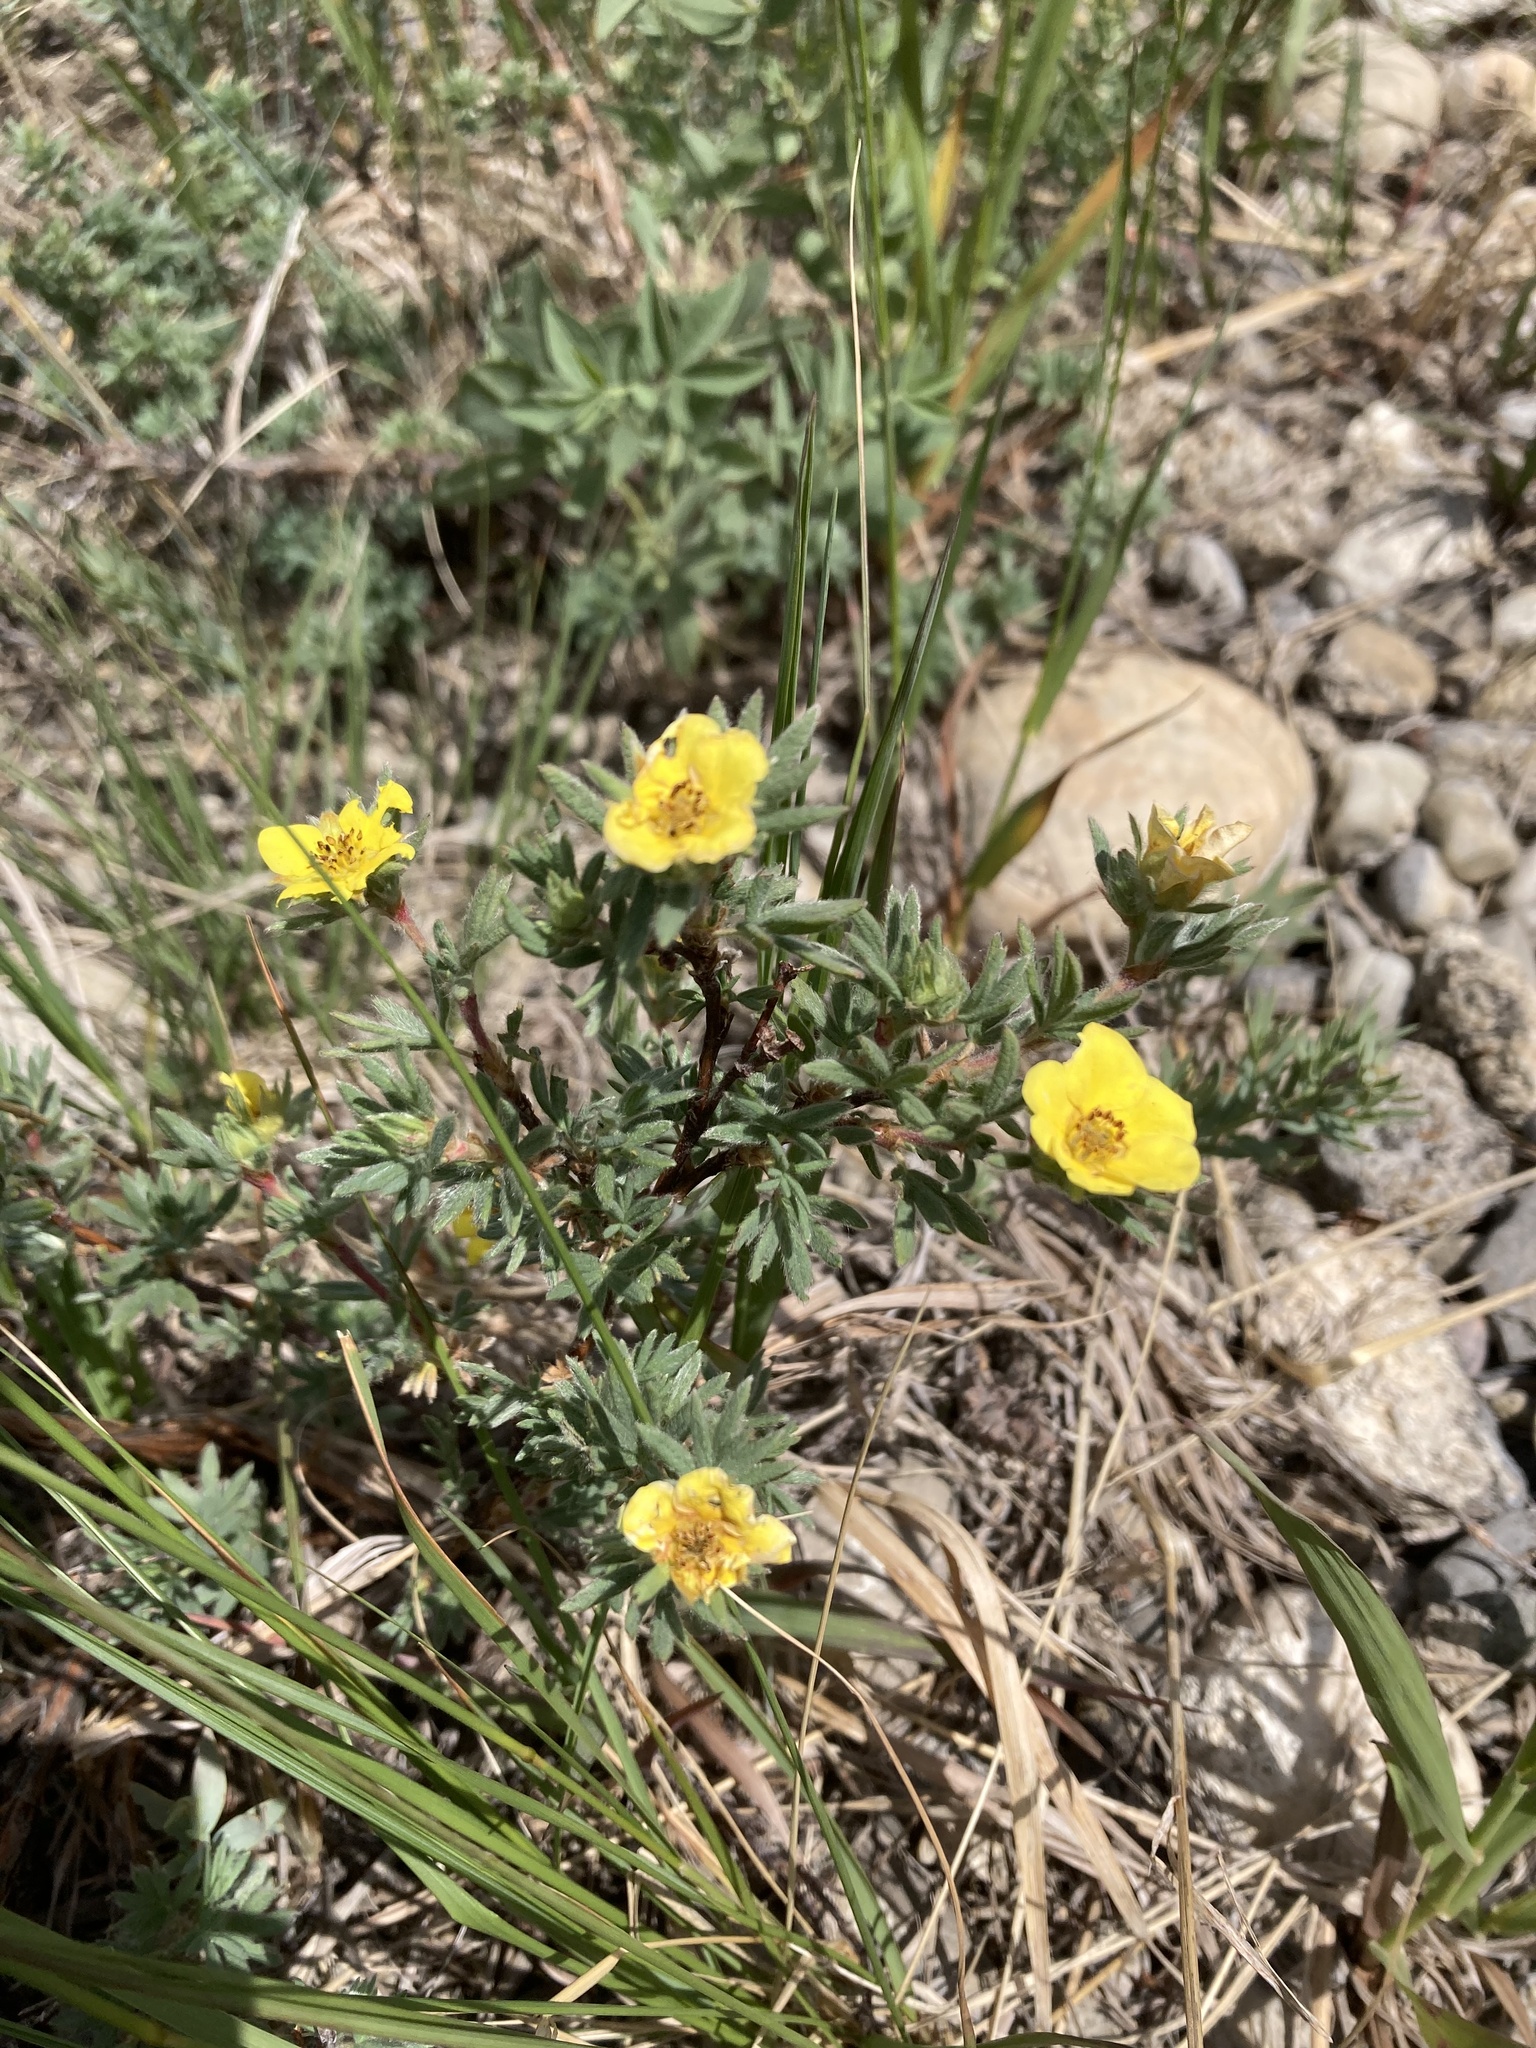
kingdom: Plantae
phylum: Tracheophyta
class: Magnoliopsida
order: Rosales
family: Rosaceae
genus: Dasiphora
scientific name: Dasiphora fruticosa
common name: Shrubby cinquefoil
